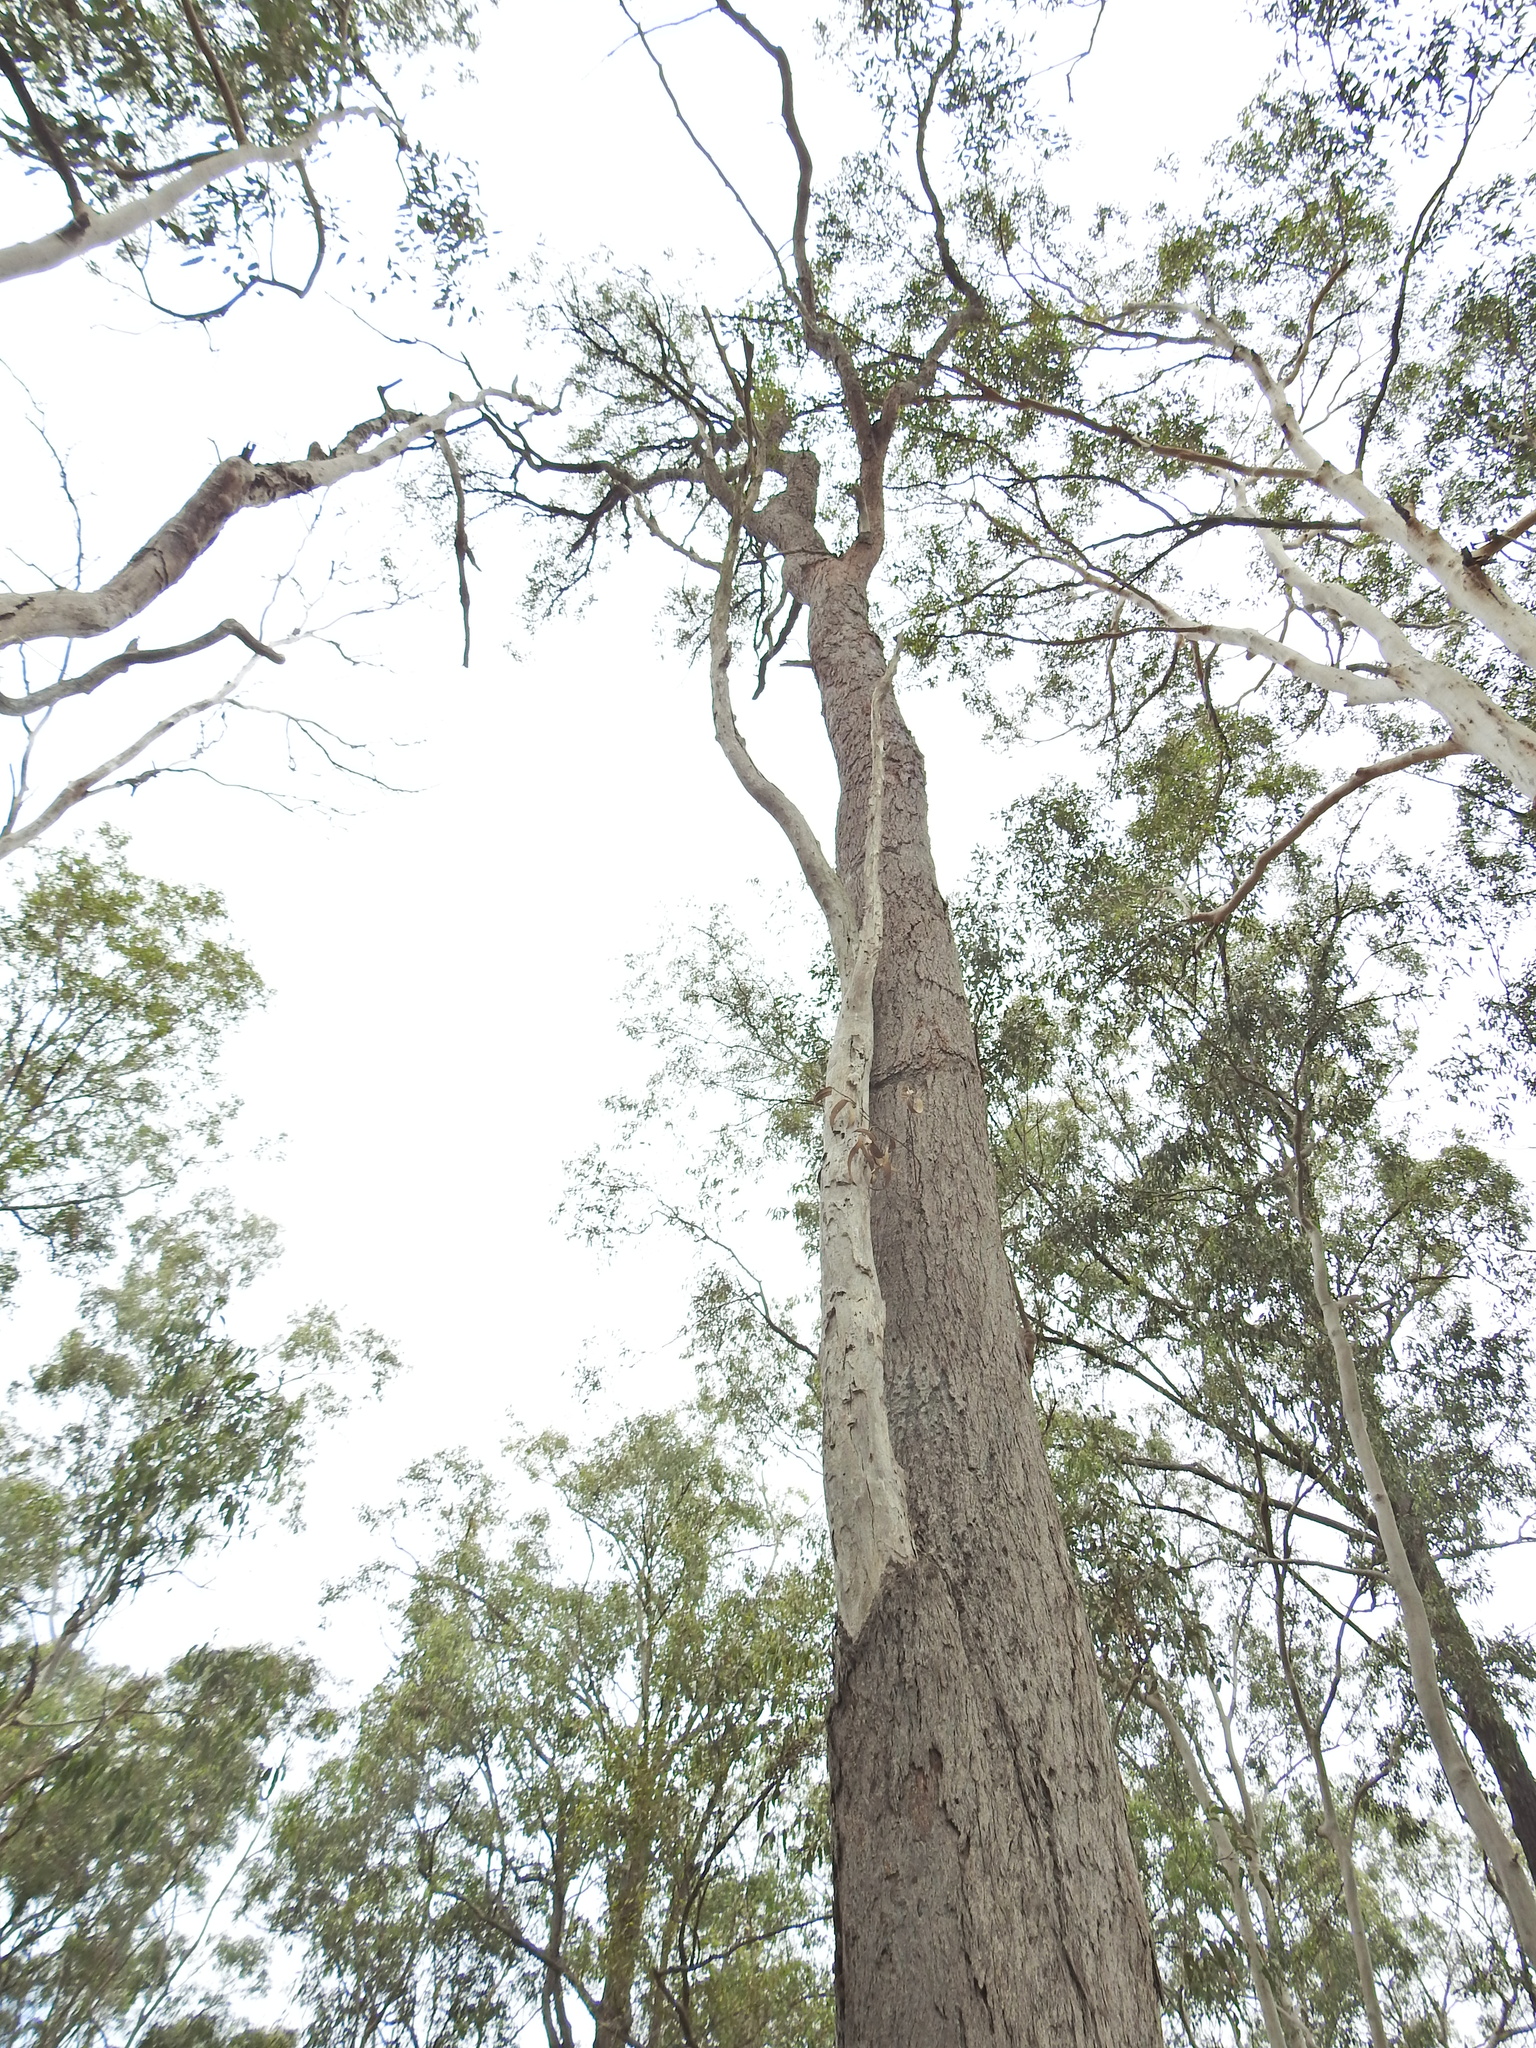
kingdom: Plantae
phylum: Tracheophyta
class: Magnoliopsida
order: Myrtales
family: Myrtaceae
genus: Eucalyptus
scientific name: Eucalyptus exserta
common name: Peppermint-bendo
